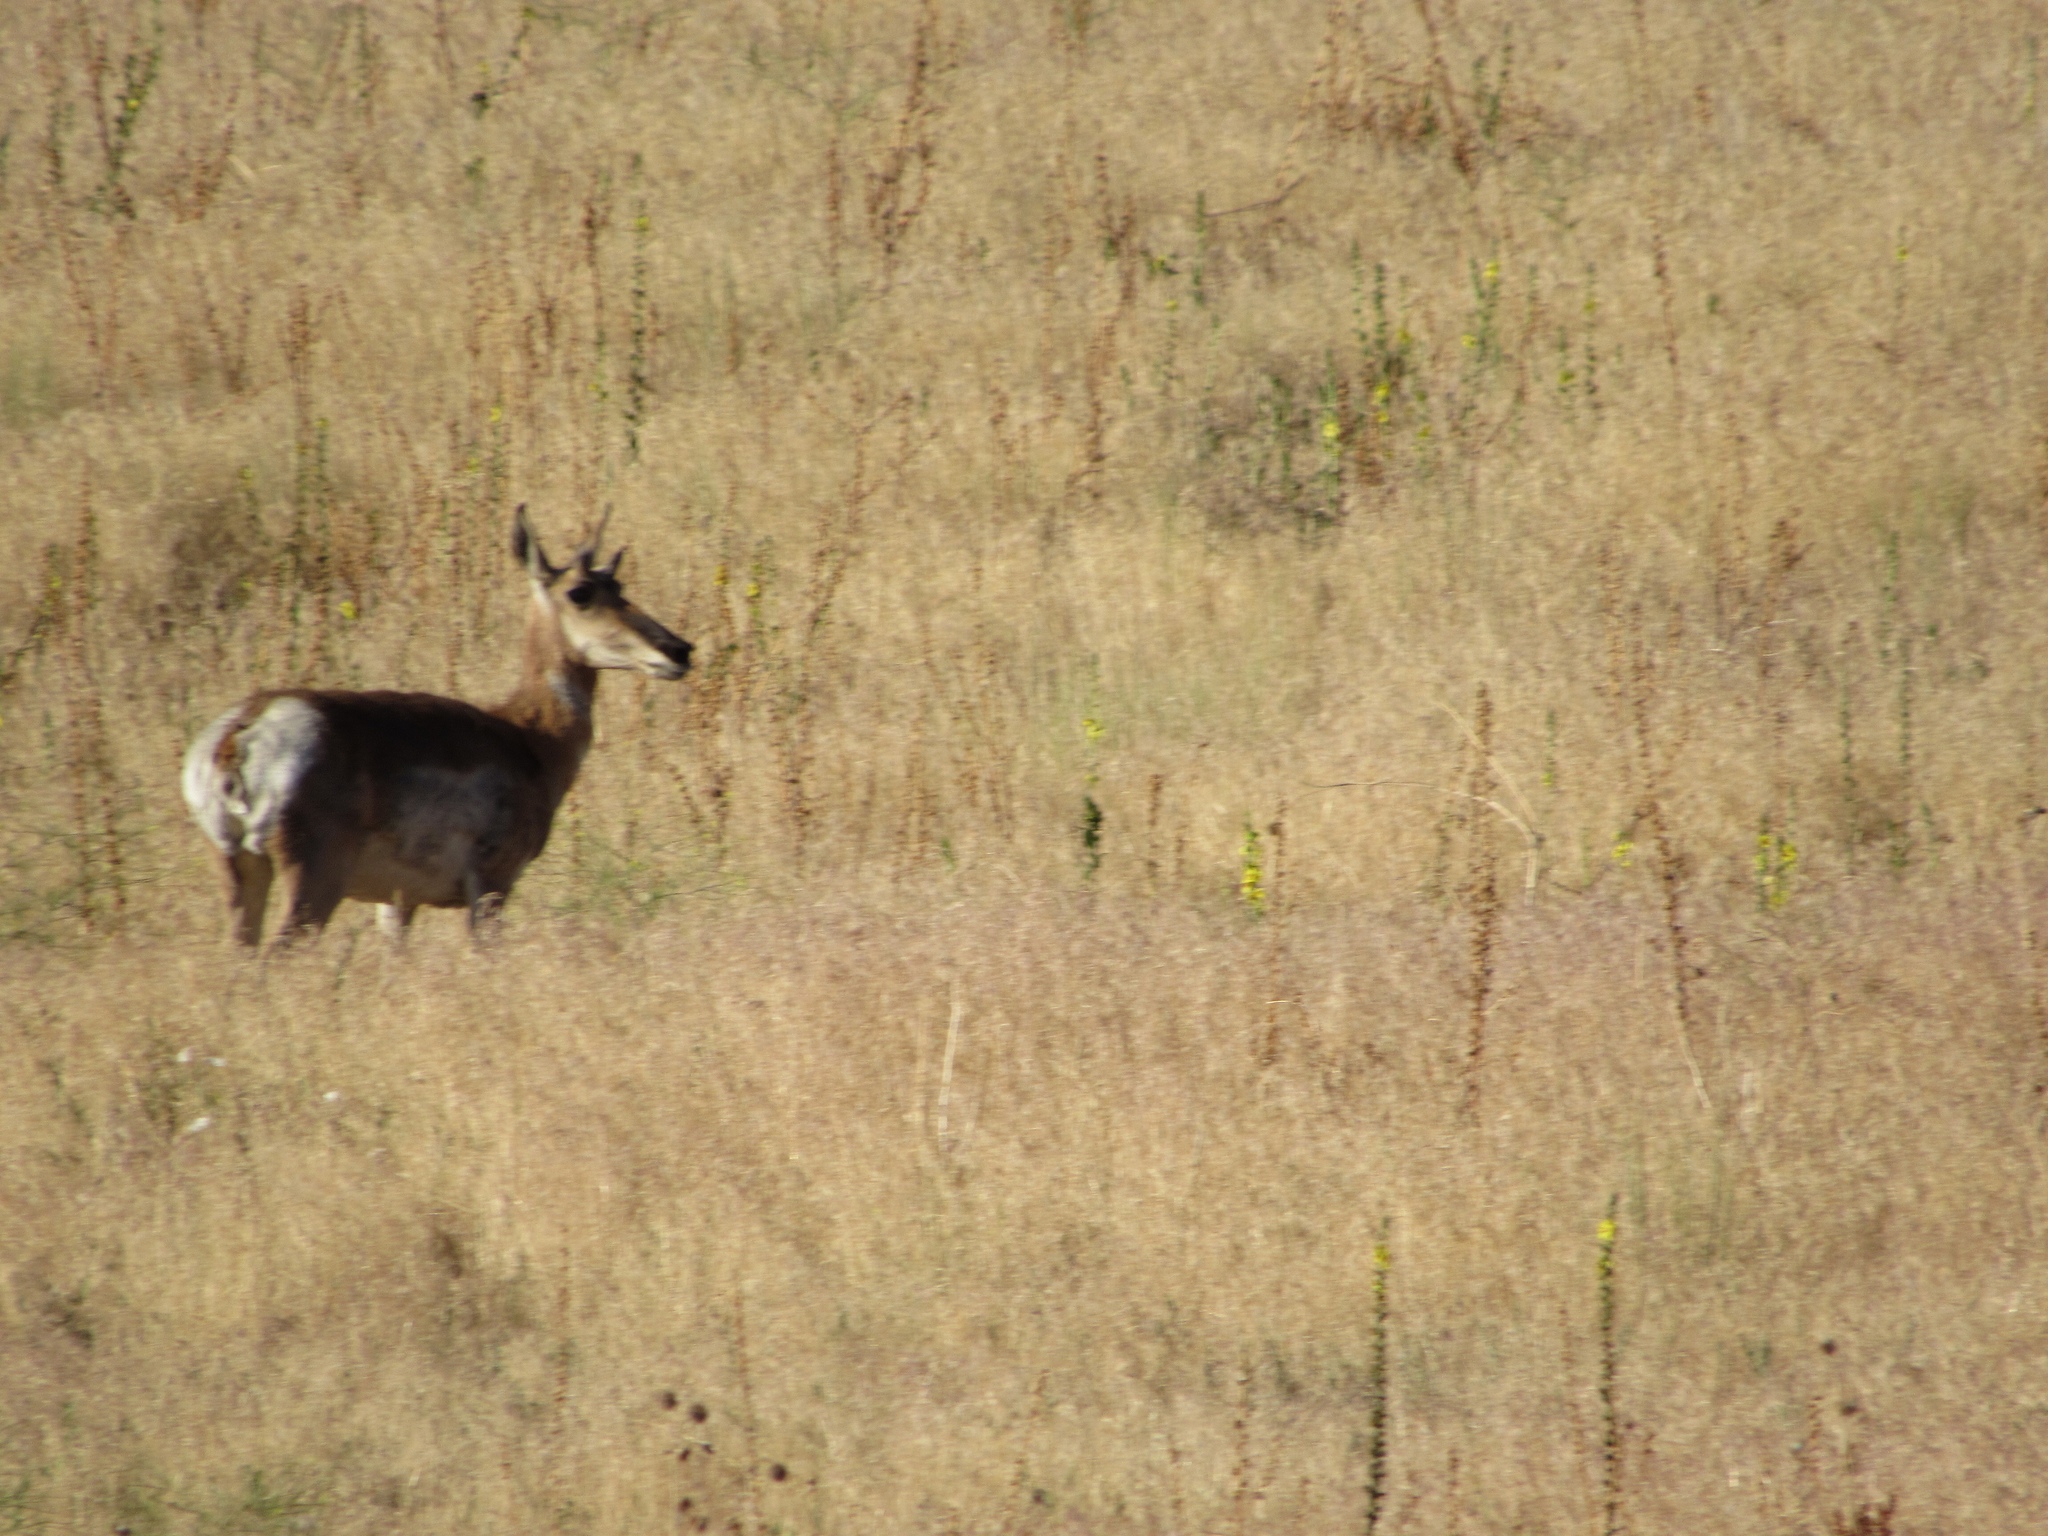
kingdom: Animalia
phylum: Chordata
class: Mammalia
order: Artiodactyla
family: Antilocapridae
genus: Antilocapra
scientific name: Antilocapra americana
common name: Pronghorn
